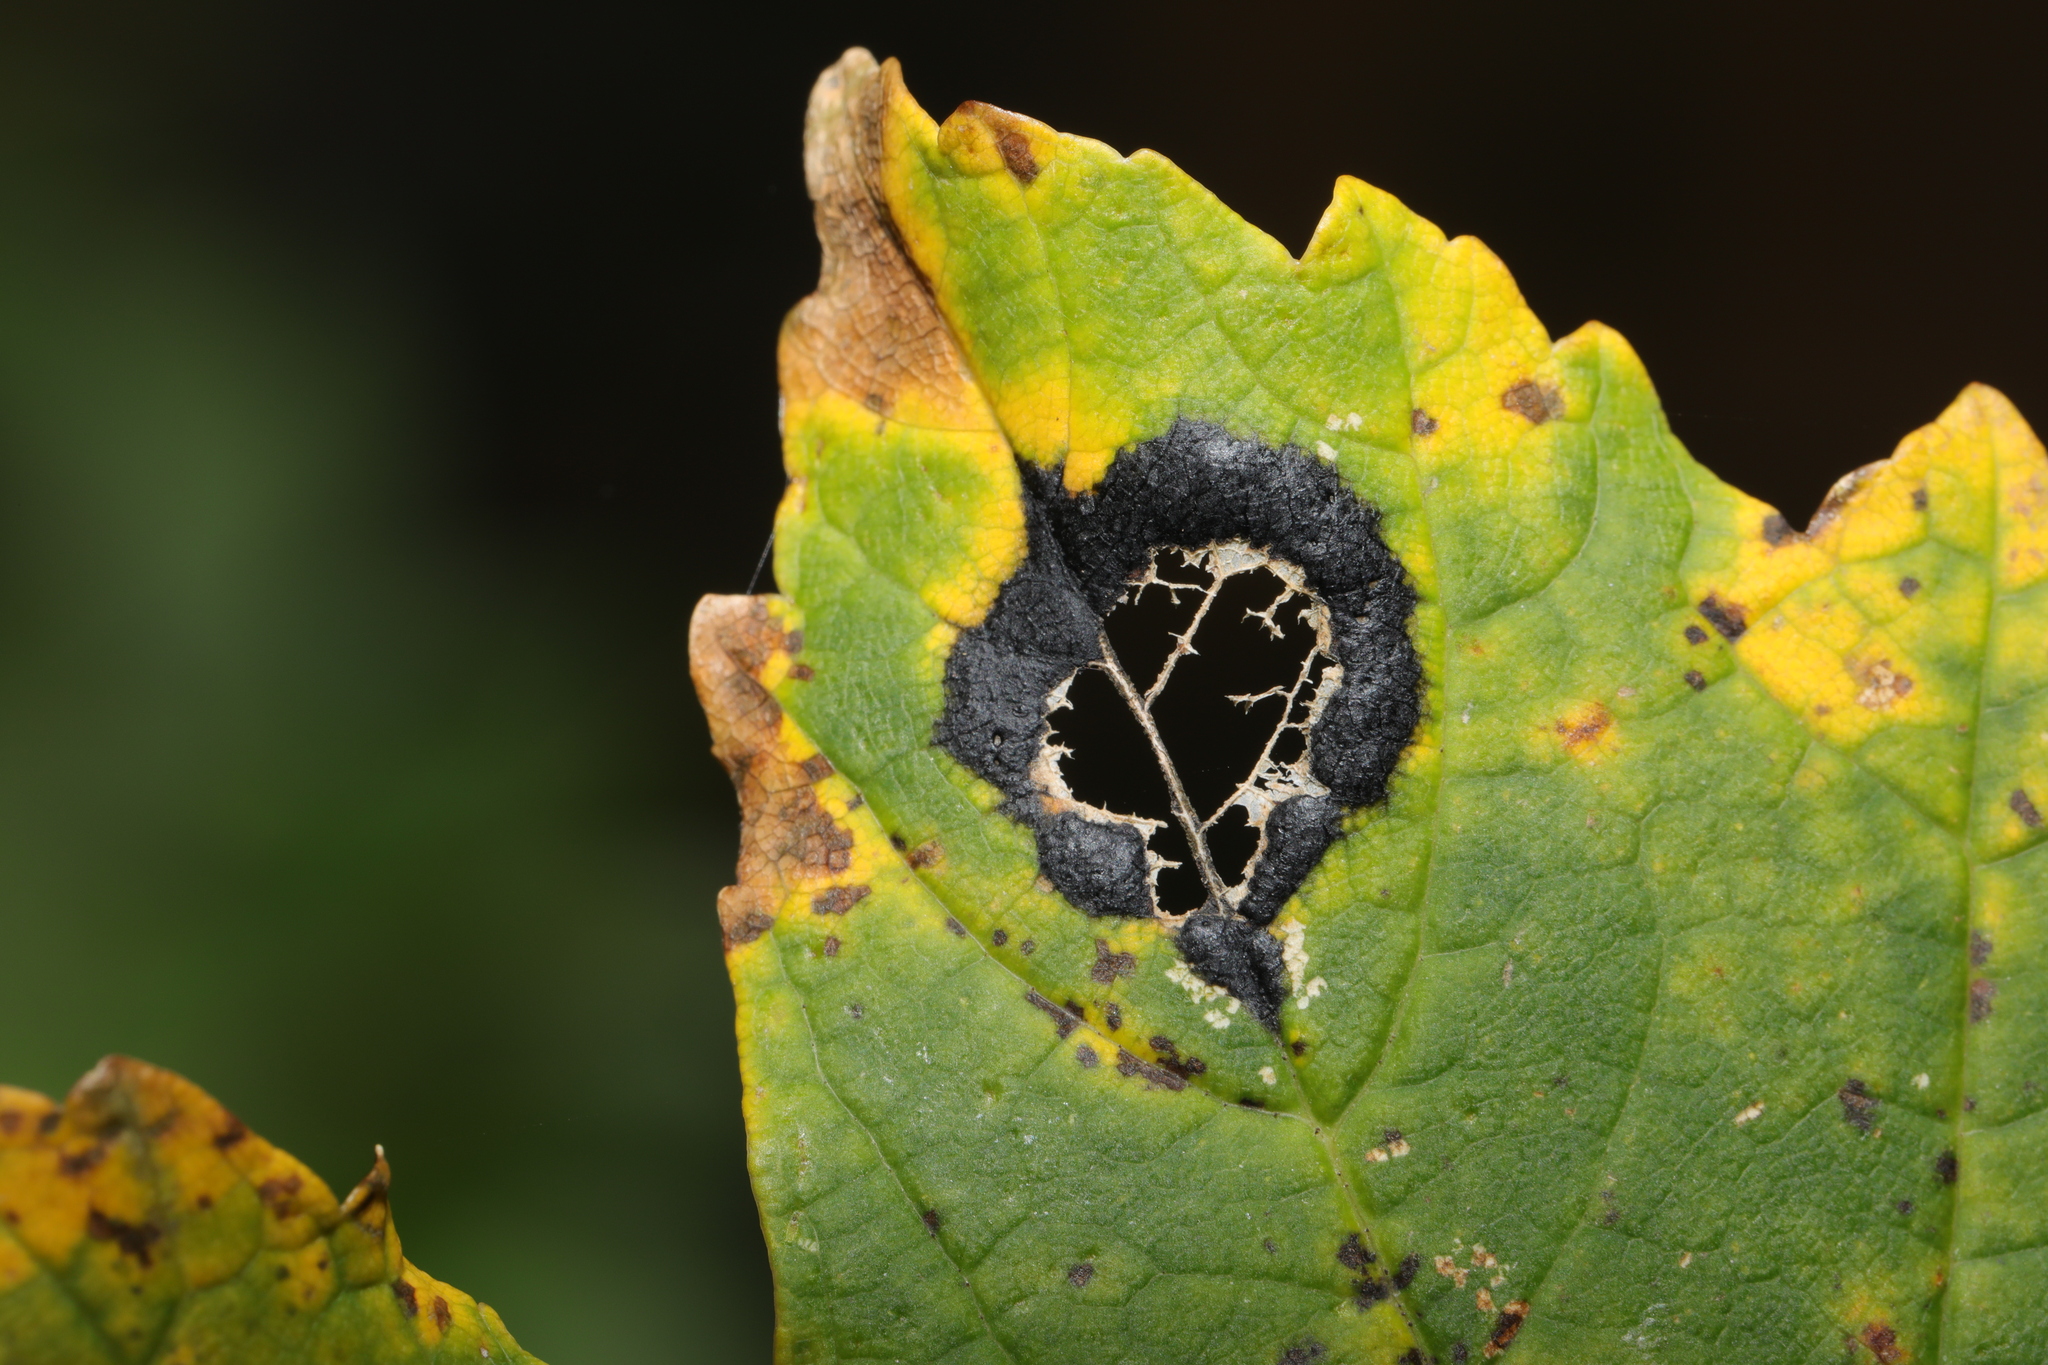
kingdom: Fungi
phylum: Ascomycota
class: Leotiomycetes
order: Rhytismatales
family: Rhytismataceae
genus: Rhytisma
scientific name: Rhytisma acerinum
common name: European tar spot
